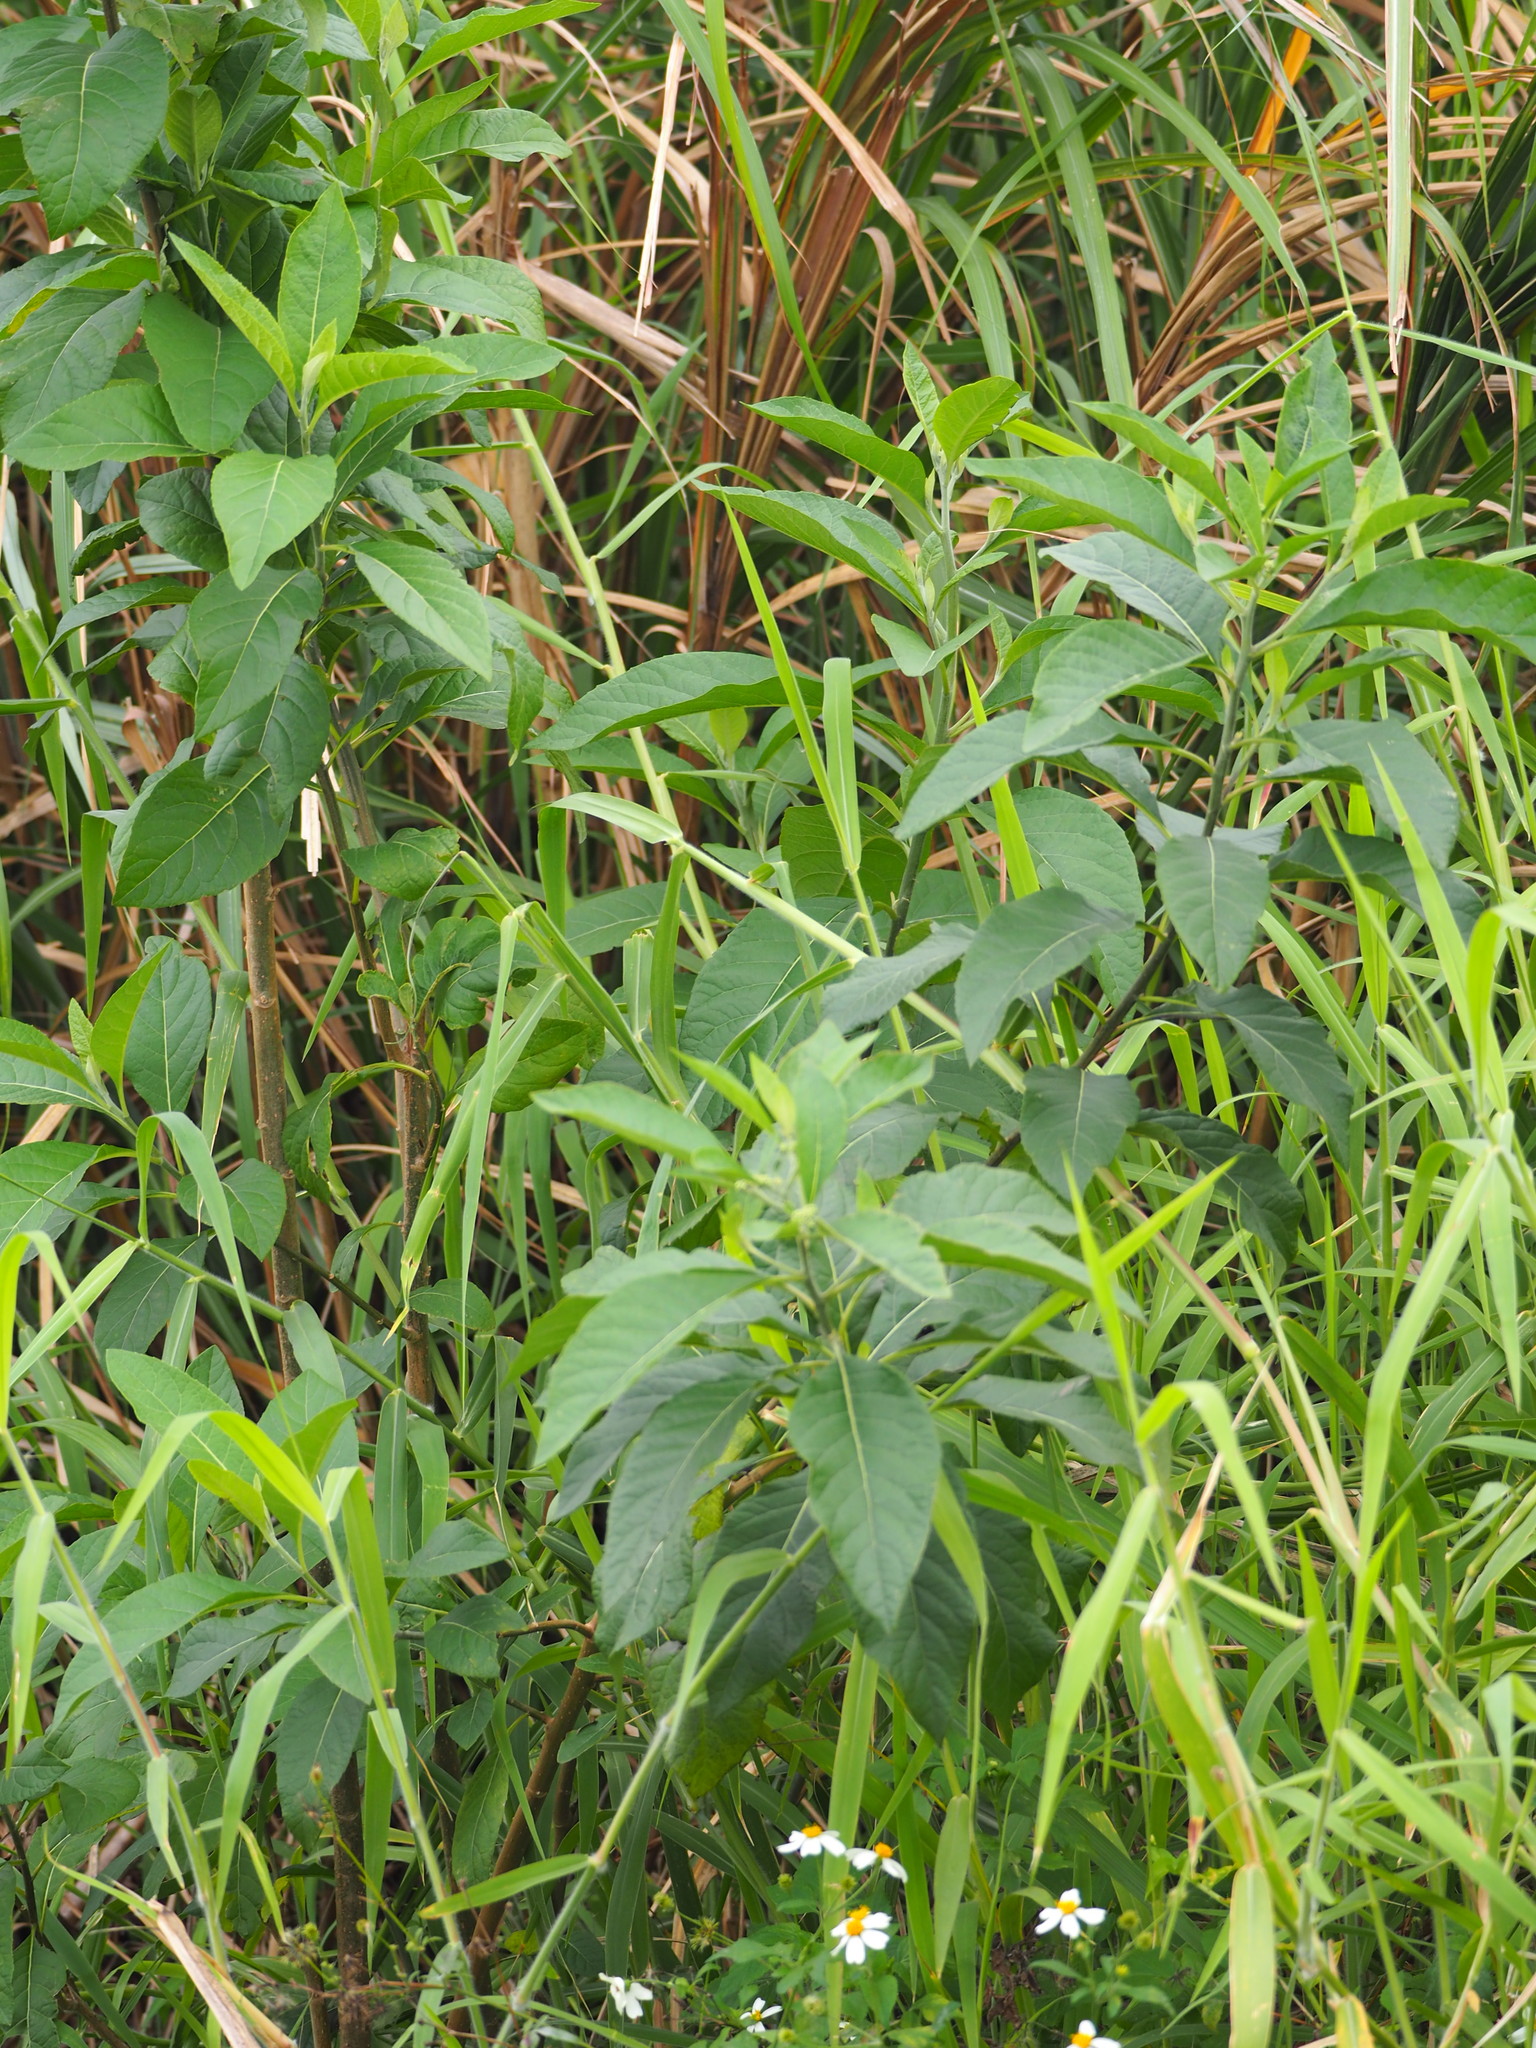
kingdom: Plantae
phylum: Tracheophyta
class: Magnoliopsida
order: Asterales
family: Asteraceae
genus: Gymnanthemum
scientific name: Gymnanthemum amygdalinum
